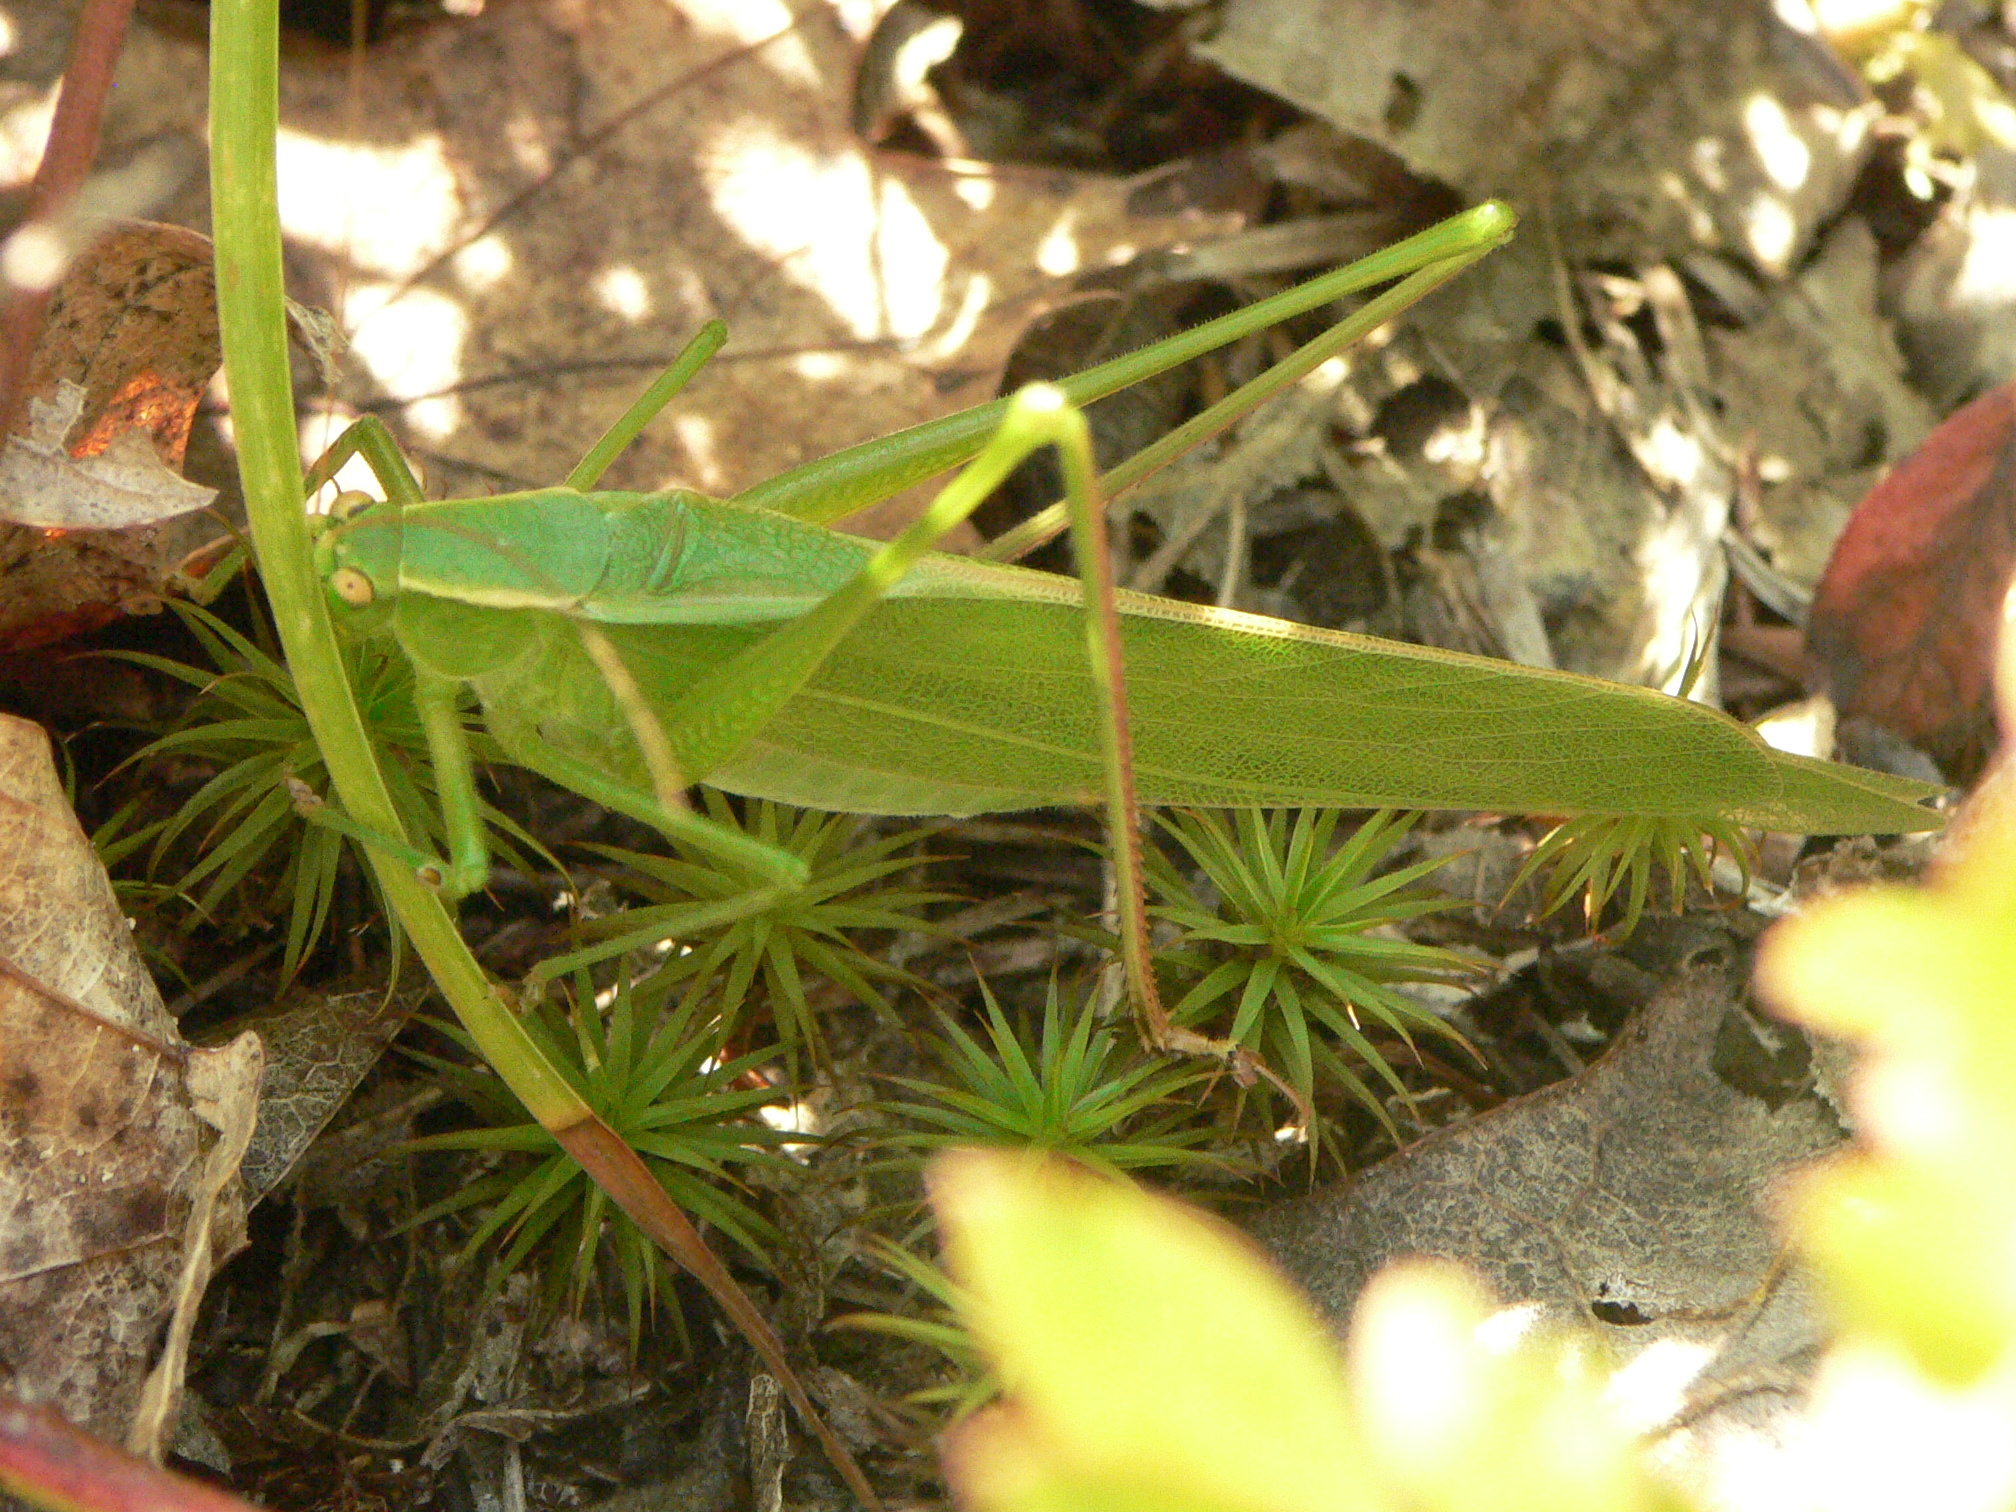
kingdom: Animalia
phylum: Arthropoda
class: Insecta
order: Orthoptera
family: Tettigoniidae
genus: Scudderia
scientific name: Scudderia curvicauda
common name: Curve-tailed bush katydid
